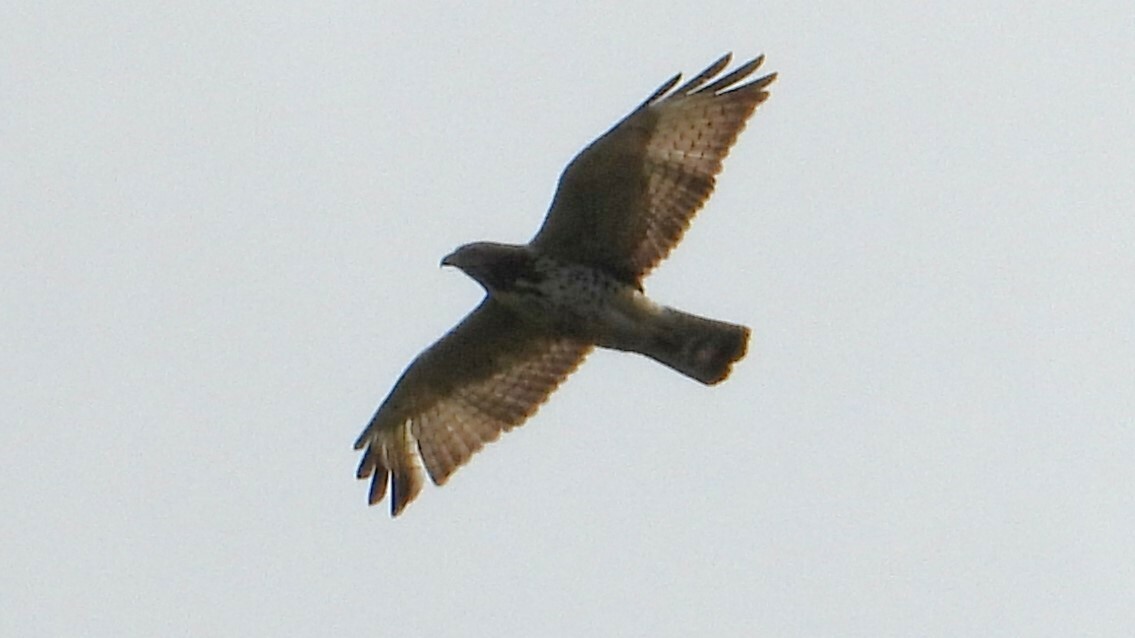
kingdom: Animalia
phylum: Chordata
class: Aves
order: Accipitriformes
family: Accipitridae
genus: Buteo
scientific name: Buteo platypterus
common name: Broad-winged hawk
